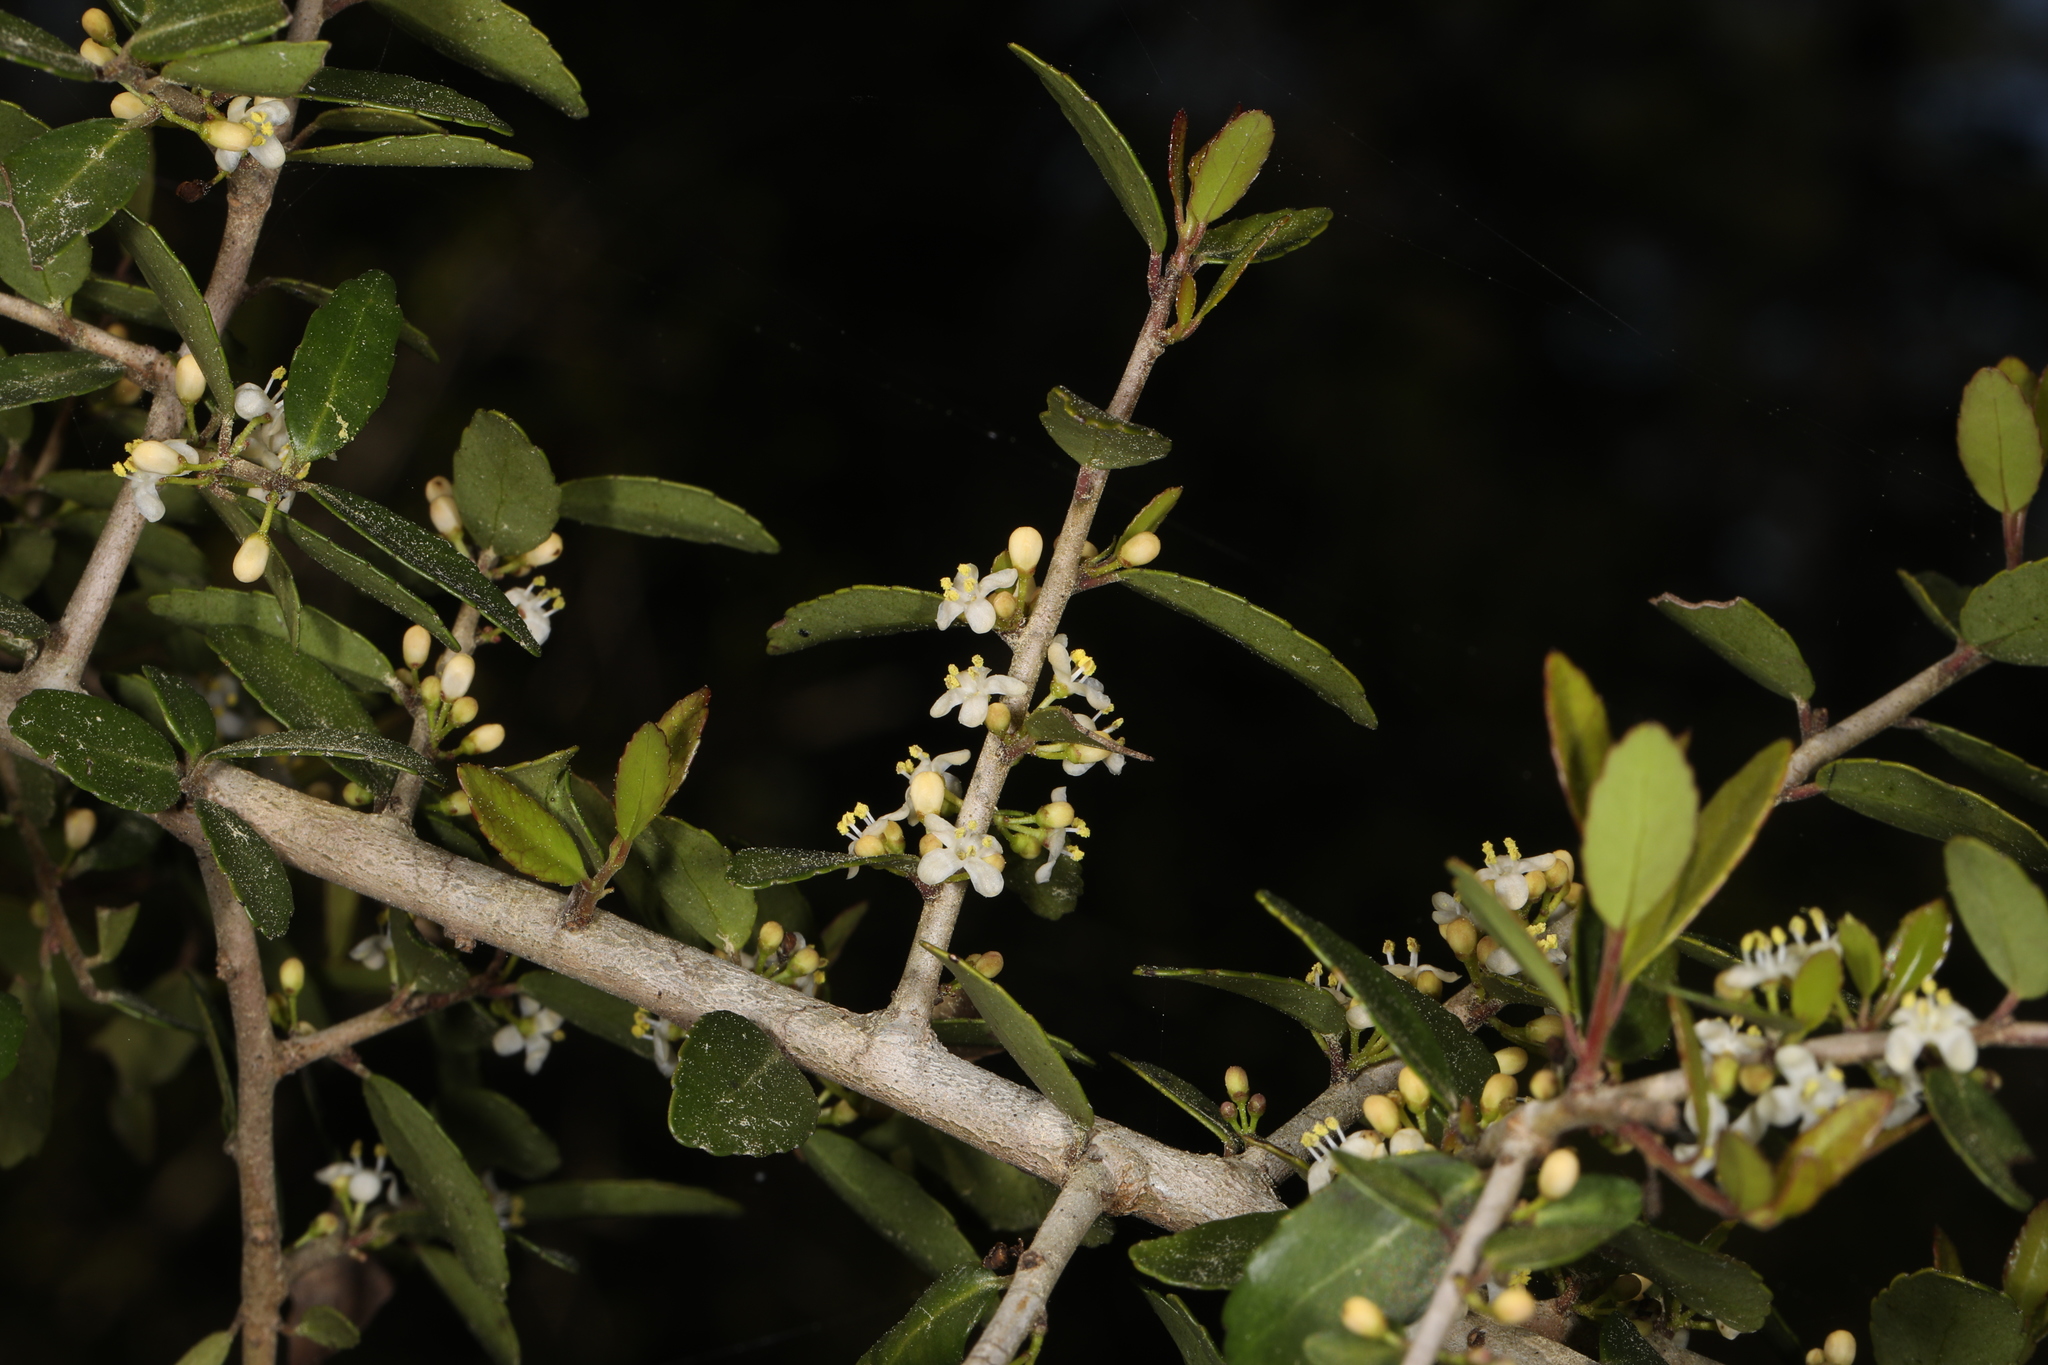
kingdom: Plantae
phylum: Tracheophyta
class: Magnoliopsida
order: Aquifoliales
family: Aquifoliaceae
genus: Ilex
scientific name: Ilex vomitoria
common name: Yaupon holly
